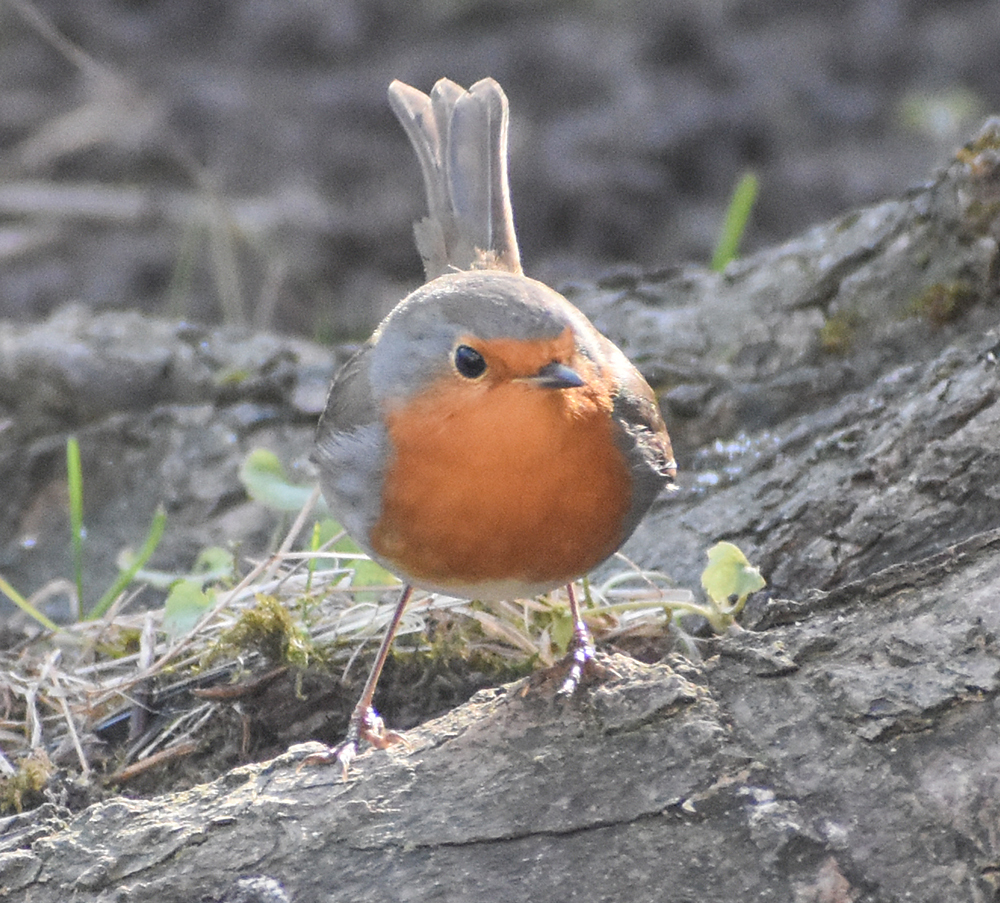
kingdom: Animalia
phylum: Chordata
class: Aves
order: Passeriformes
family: Muscicapidae
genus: Erithacus
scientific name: Erithacus rubecula
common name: European robin
